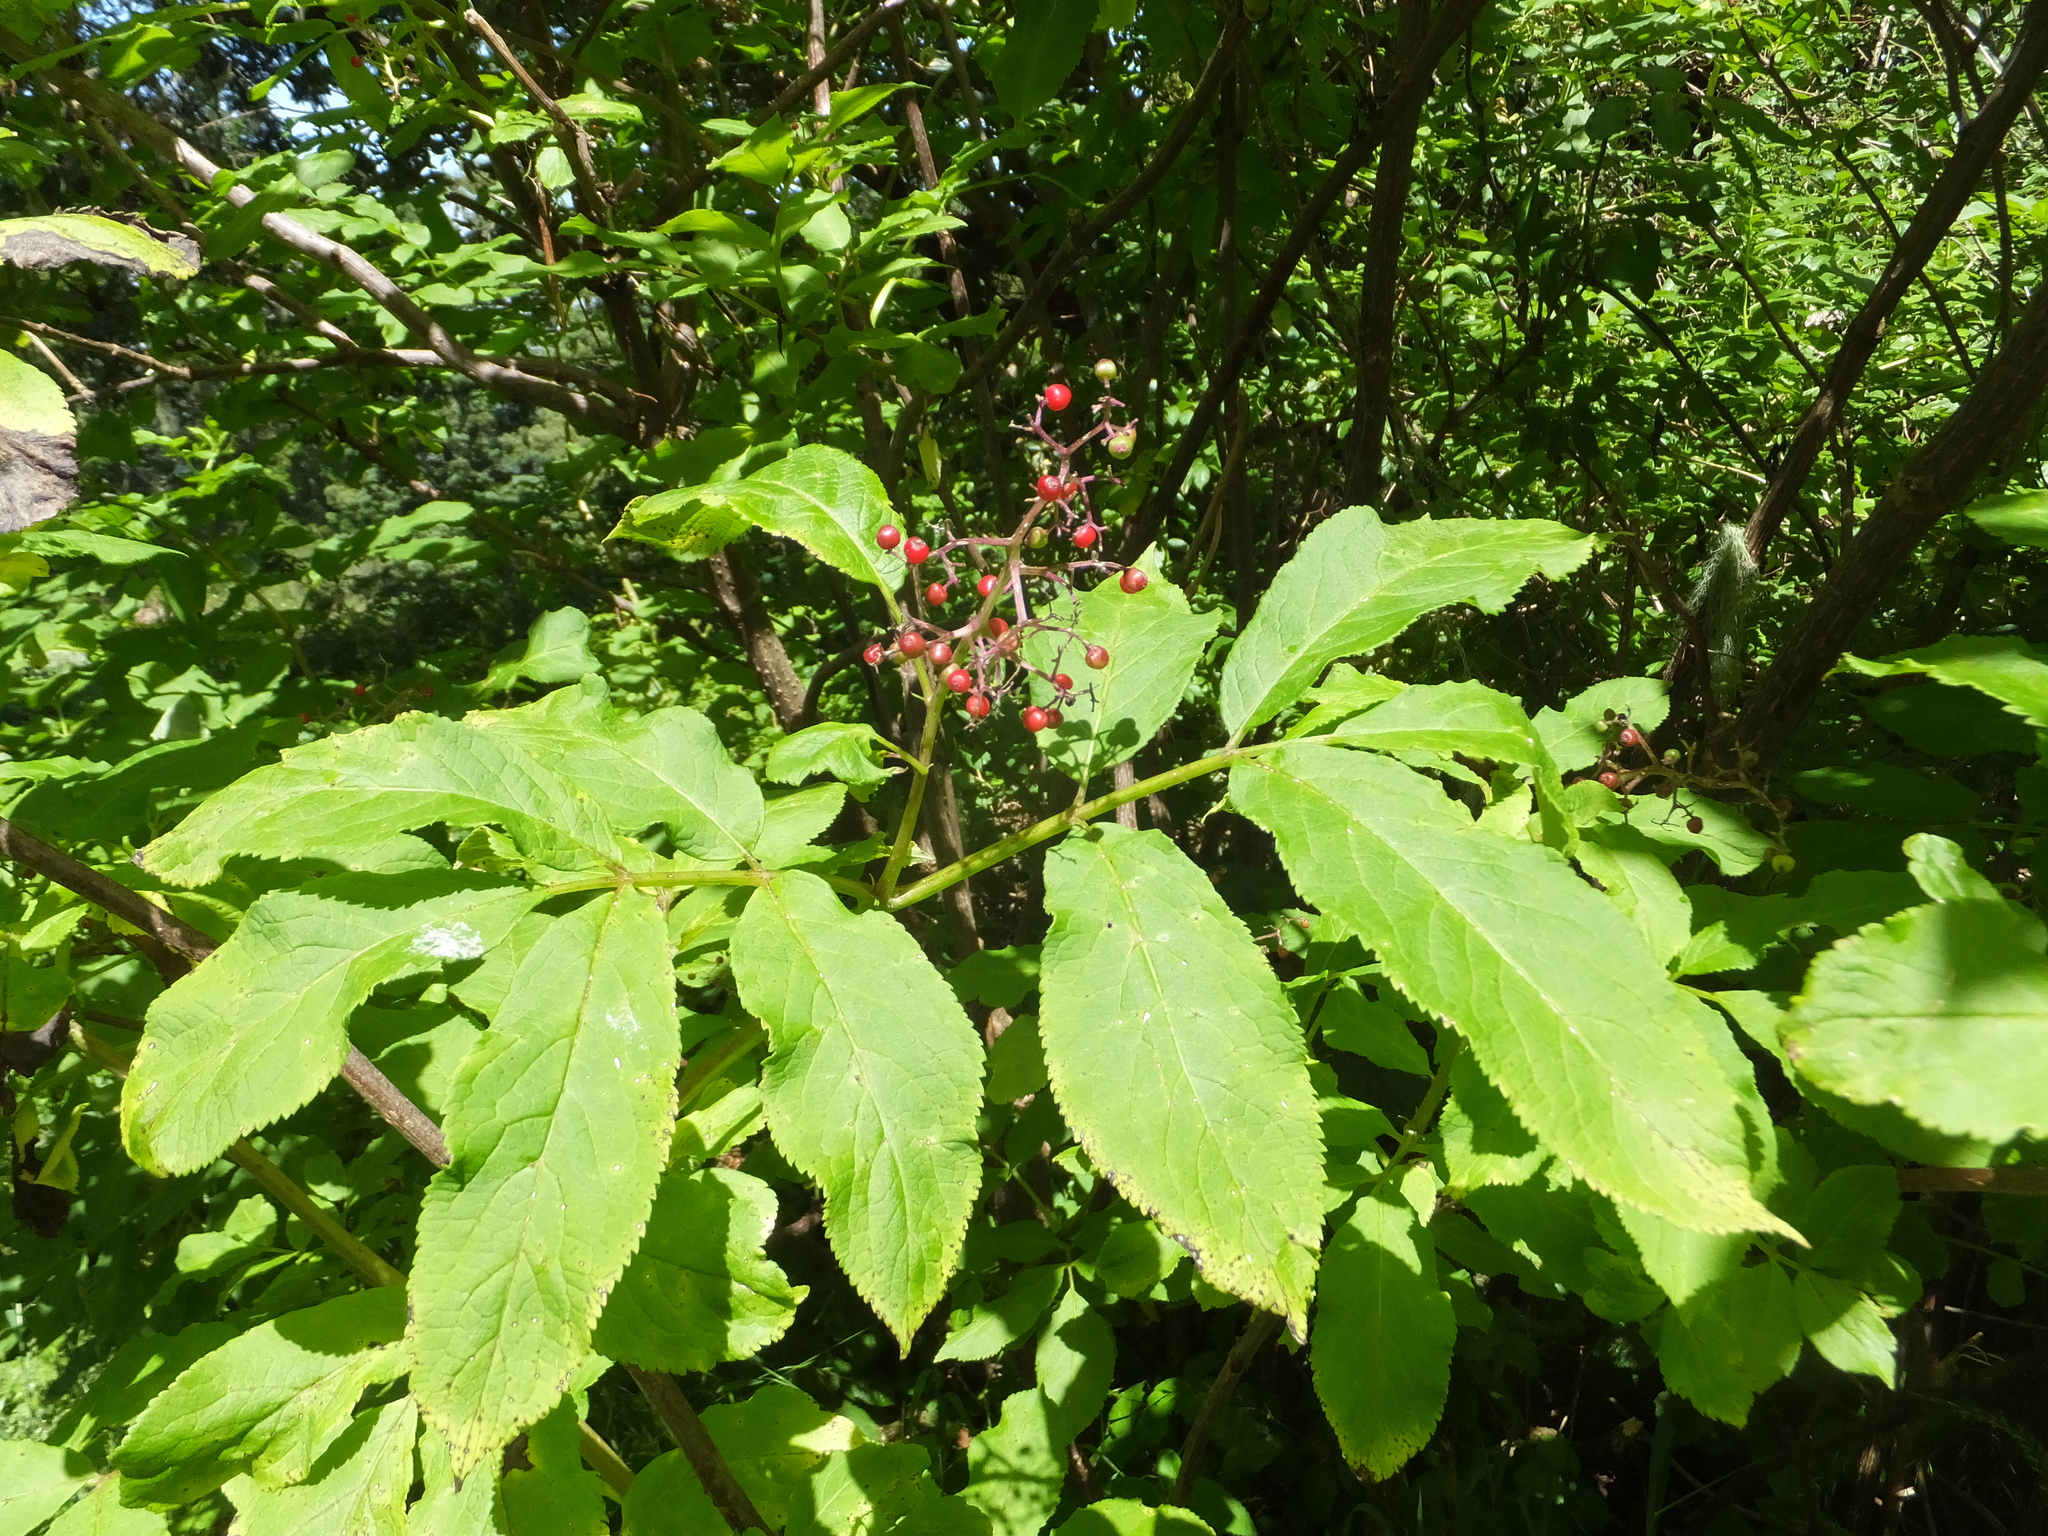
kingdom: Plantae
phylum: Tracheophyta
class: Magnoliopsida
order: Dipsacales
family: Viburnaceae
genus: Sambucus
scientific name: Sambucus racemosa
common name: Red-berried elder
